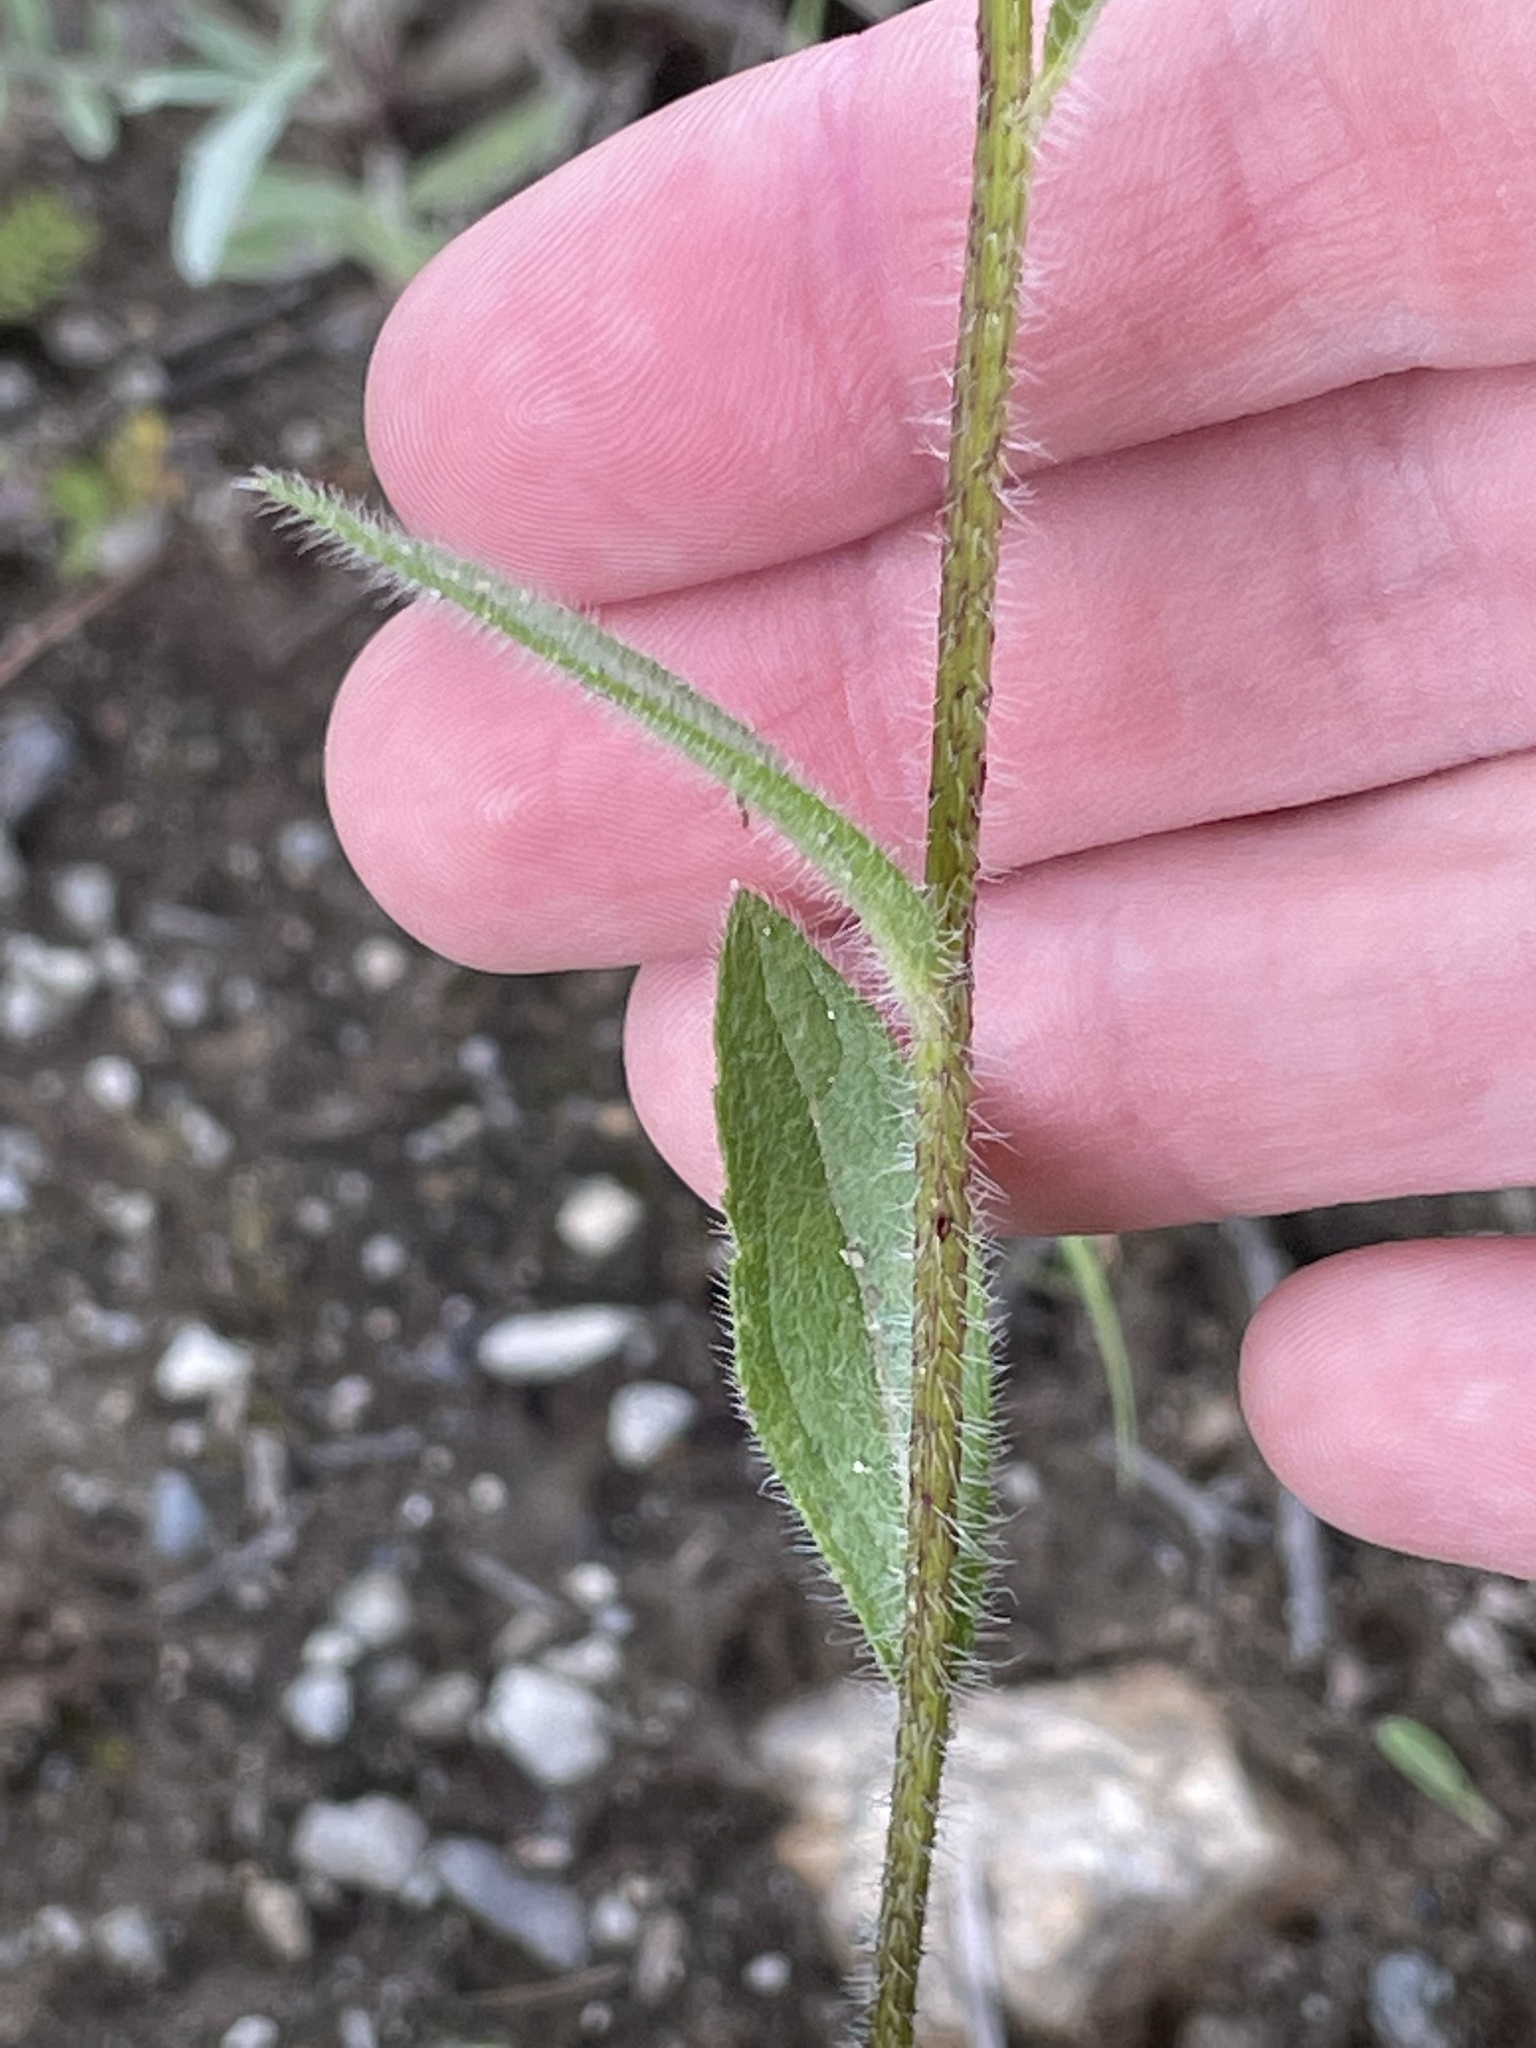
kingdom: Plantae
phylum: Tracheophyta
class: Magnoliopsida
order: Asterales
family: Asteraceae
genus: Rudbeckia
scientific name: Rudbeckia hirta
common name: Black-eyed-susan
